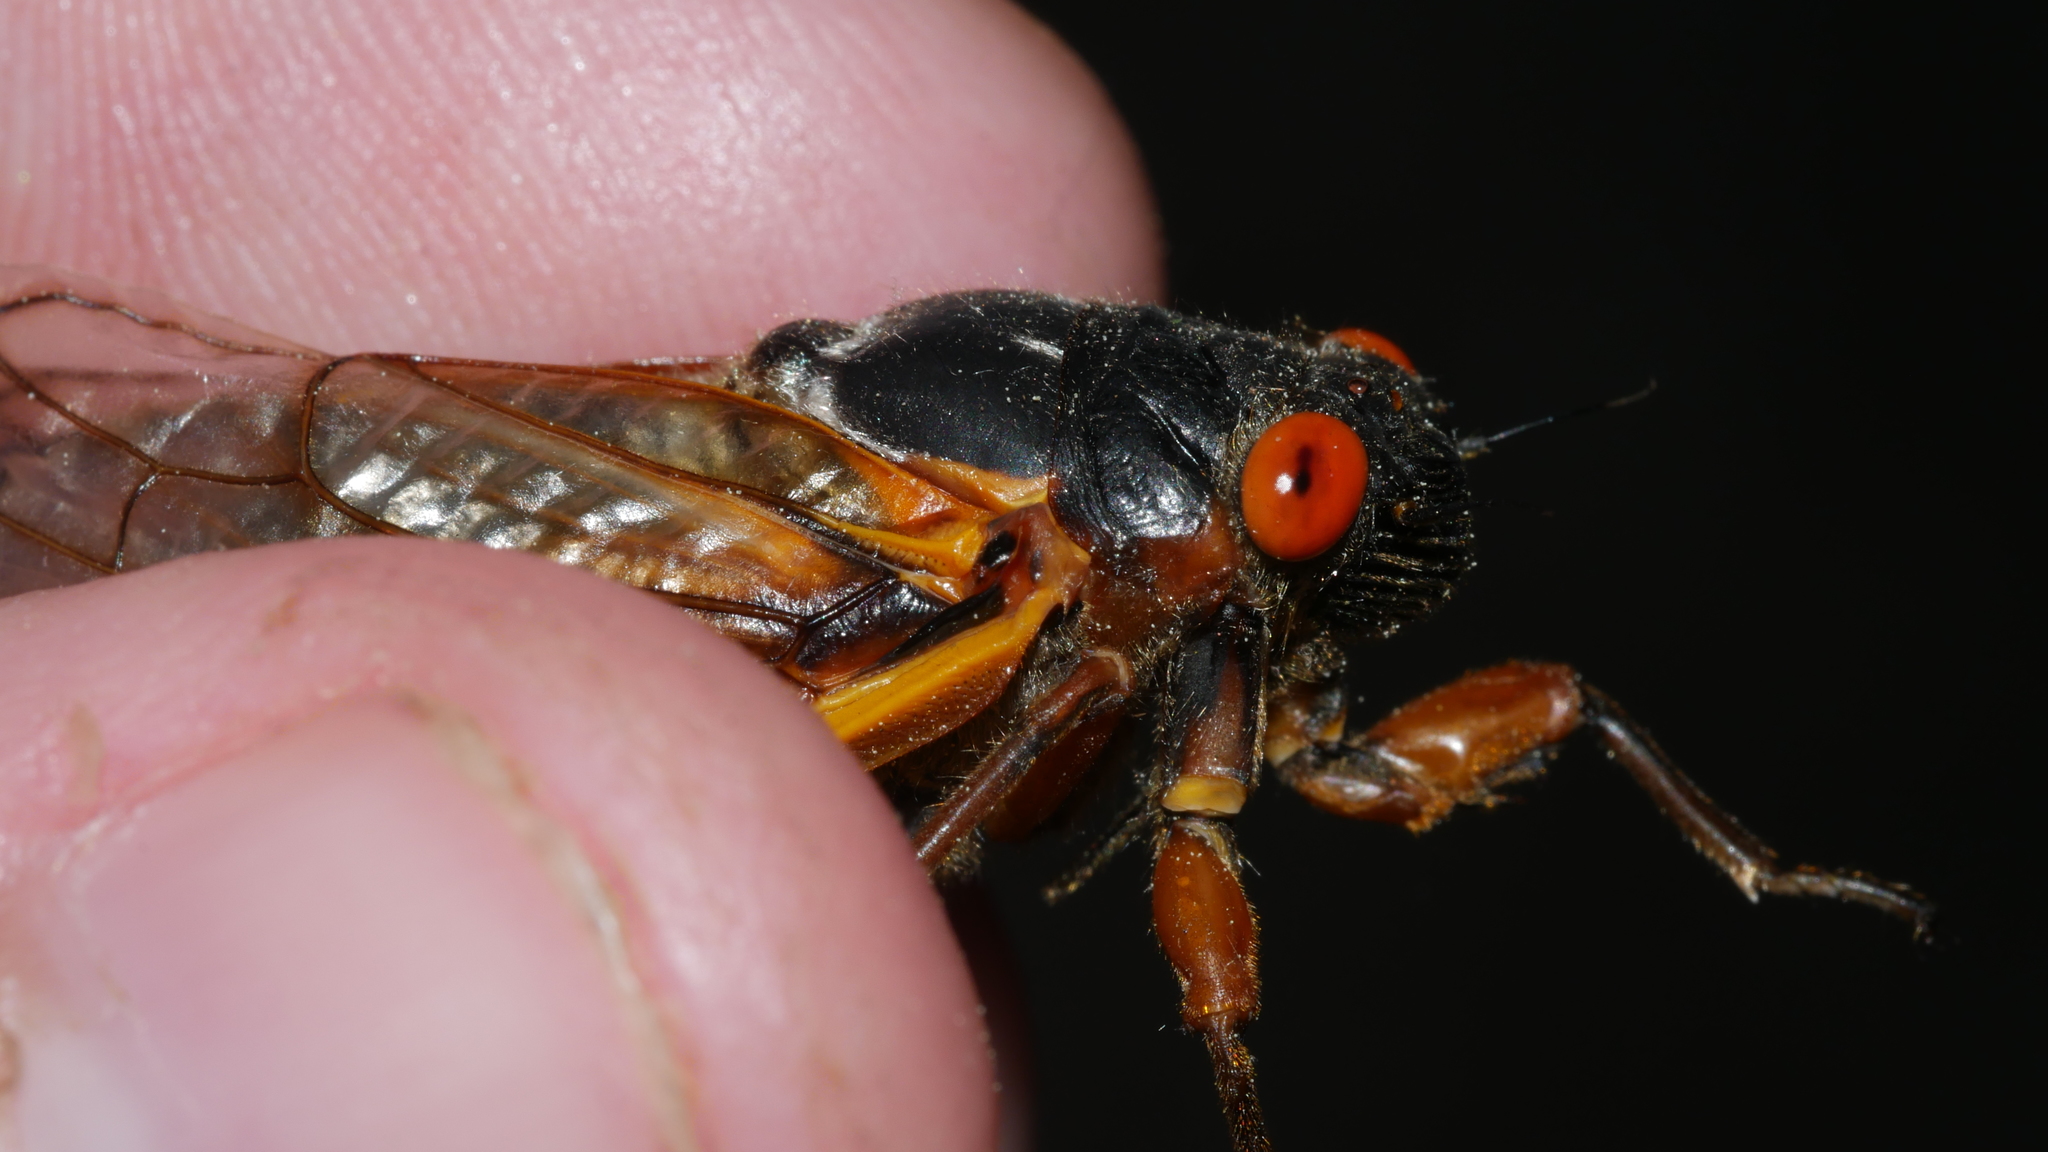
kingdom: Animalia
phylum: Arthropoda
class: Insecta
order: Hemiptera
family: Cicadidae
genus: Magicicada
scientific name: Magicicada septendecim
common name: Periodical cicada
